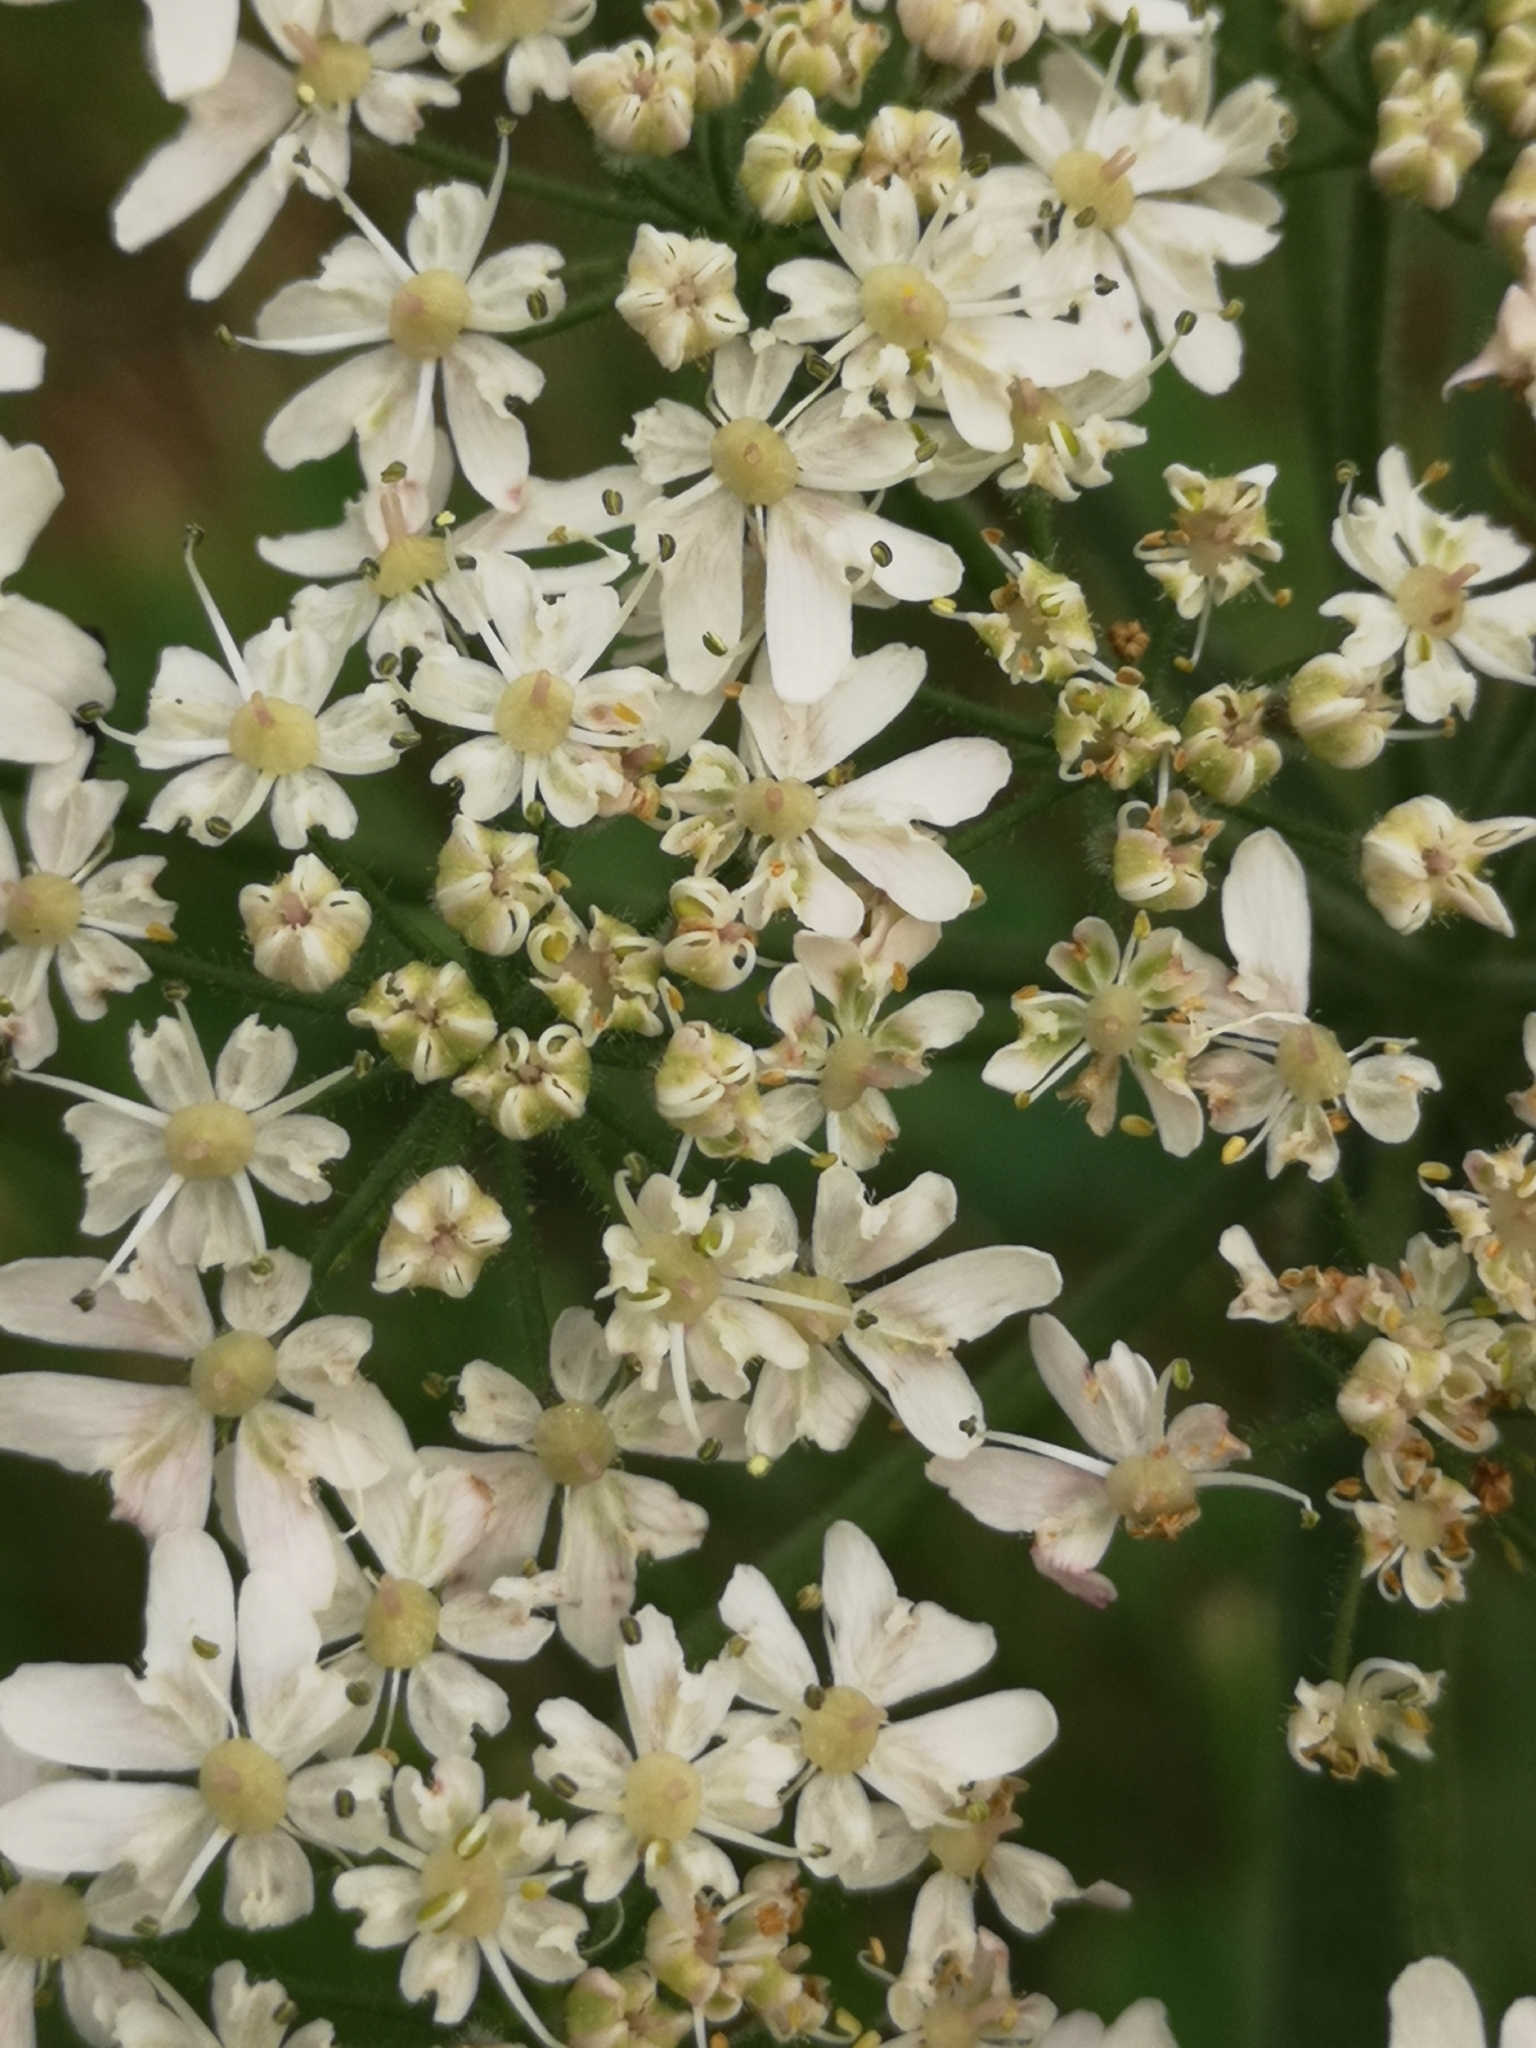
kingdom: Plantae
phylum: Tracheophyta
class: Magnoliopsida
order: Apiales
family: Apiaceae
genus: Heracleum
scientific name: Heracleum sphondylium
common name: Hogweed
